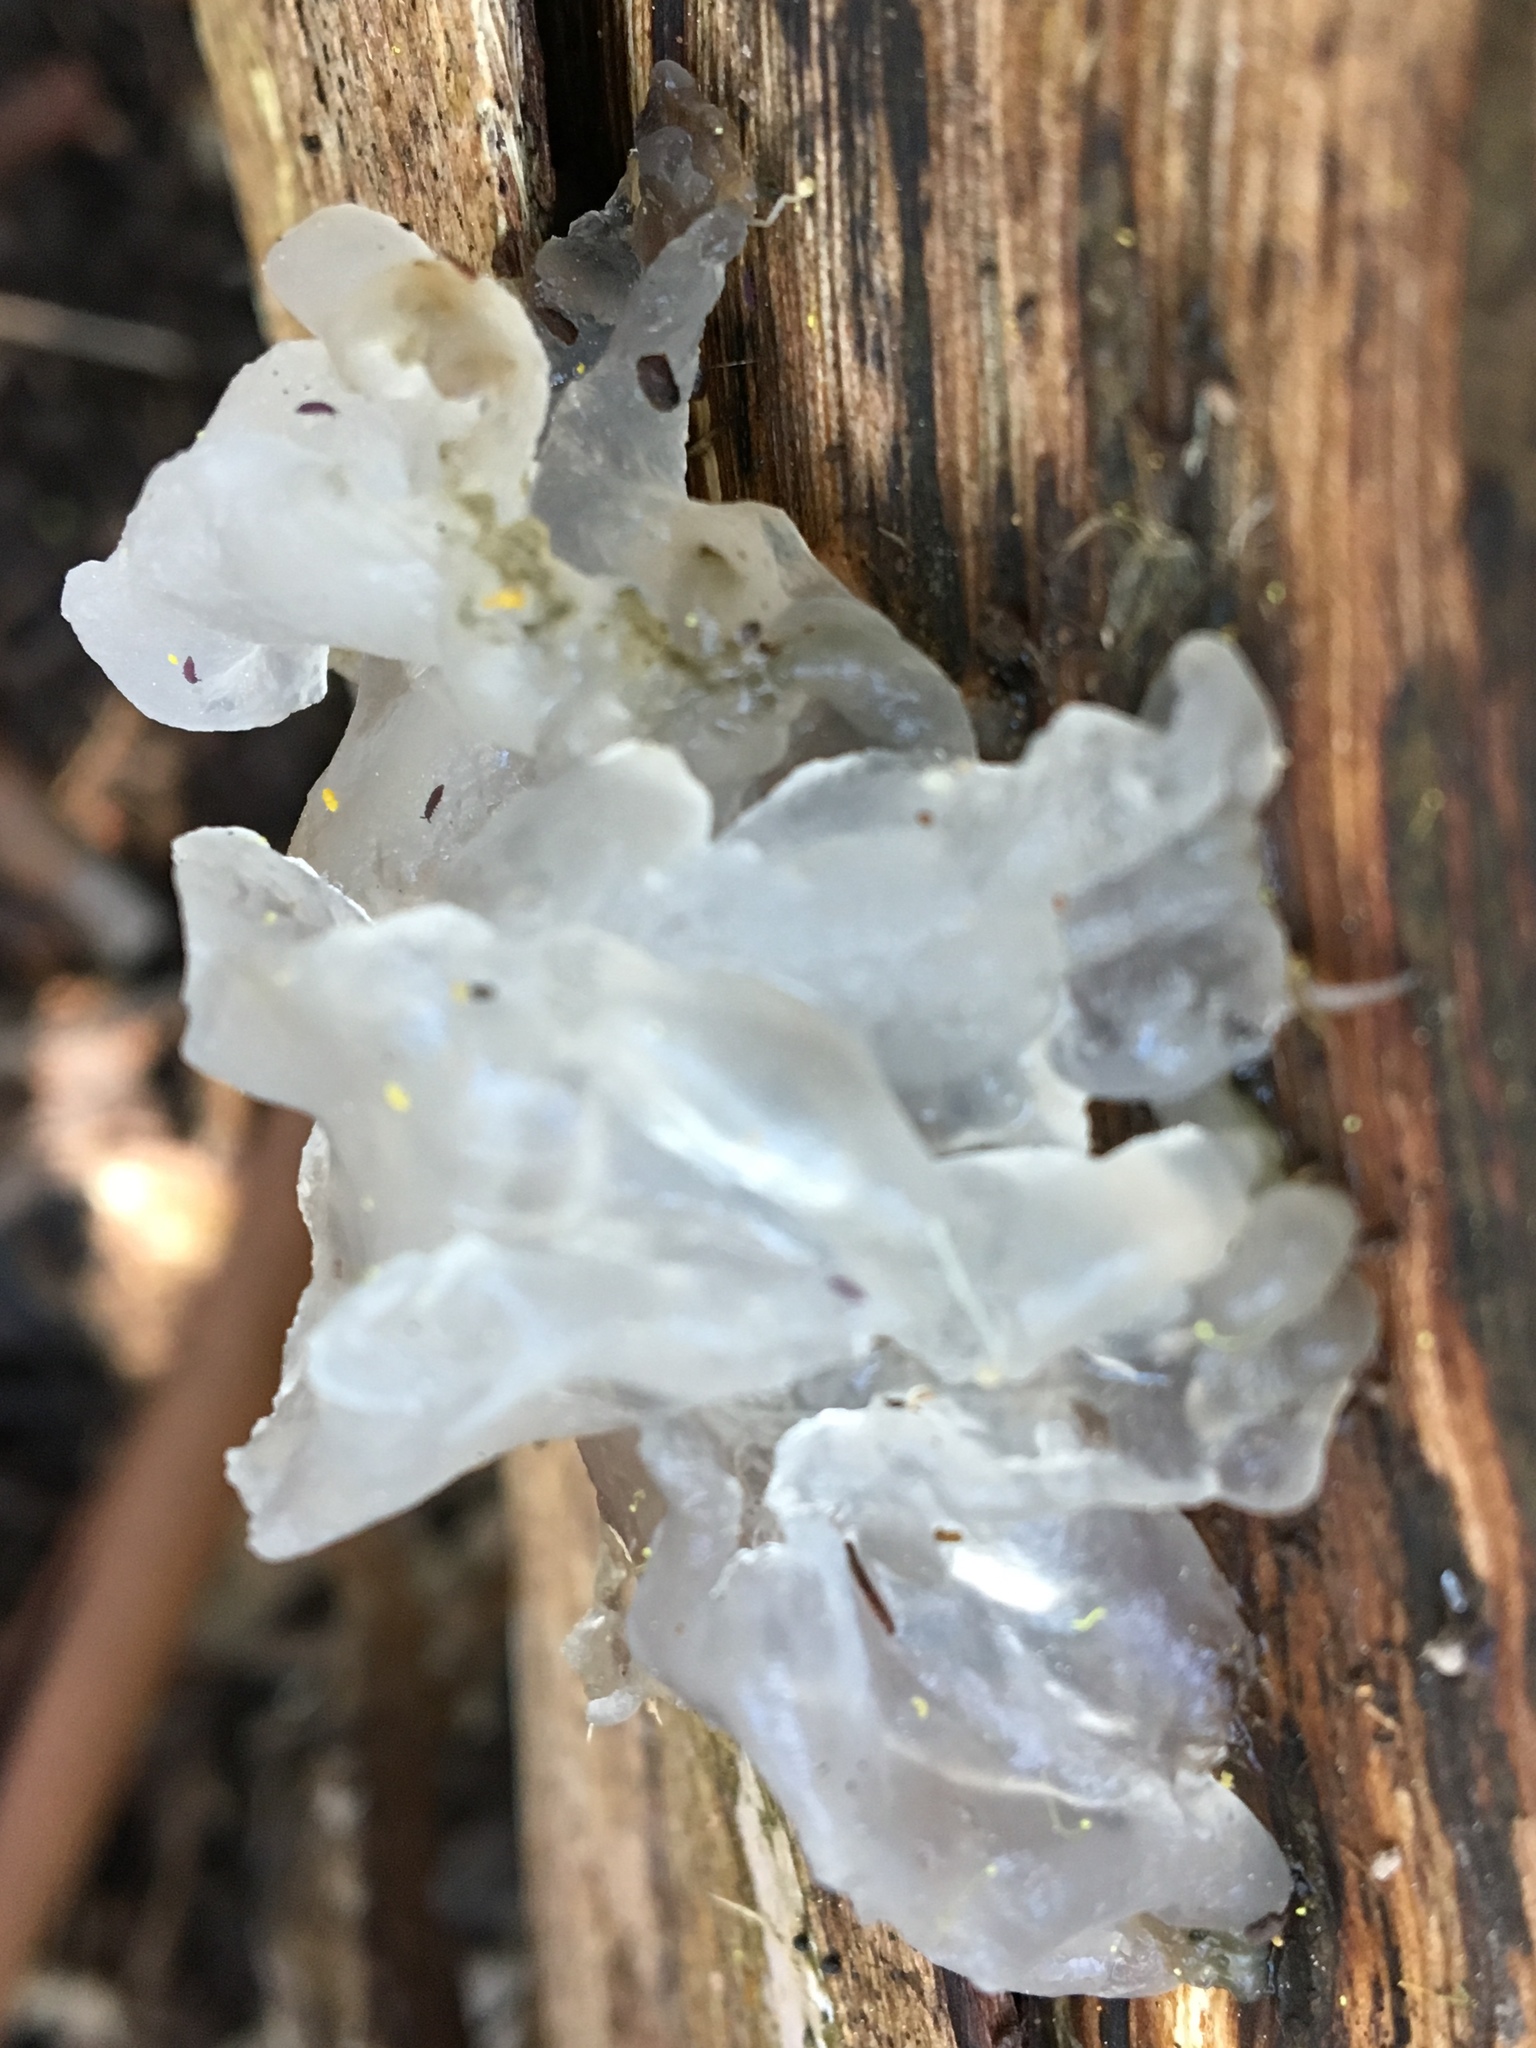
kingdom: Fungi
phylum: Basidiomycota
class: Tremellomycetes
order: Tremellales
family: Tremellaceae
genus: Tremella
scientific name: Tremella fuciformis
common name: Snow fungus
